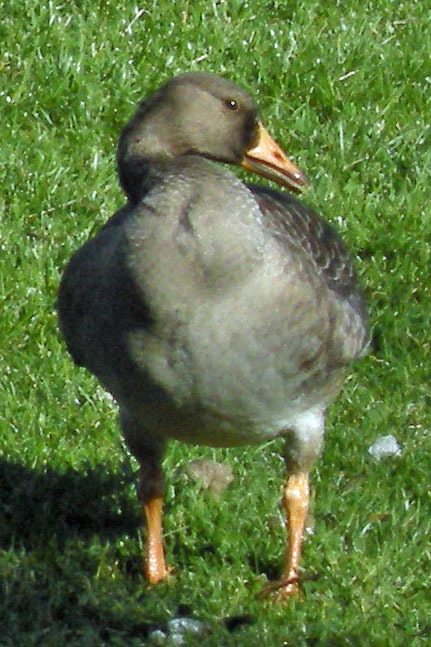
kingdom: Animalia
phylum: Chordata
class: Aves
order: Anseriformes
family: Anatidae
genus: Anser
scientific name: Anser albifrons
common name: Greater white-fronted goose
